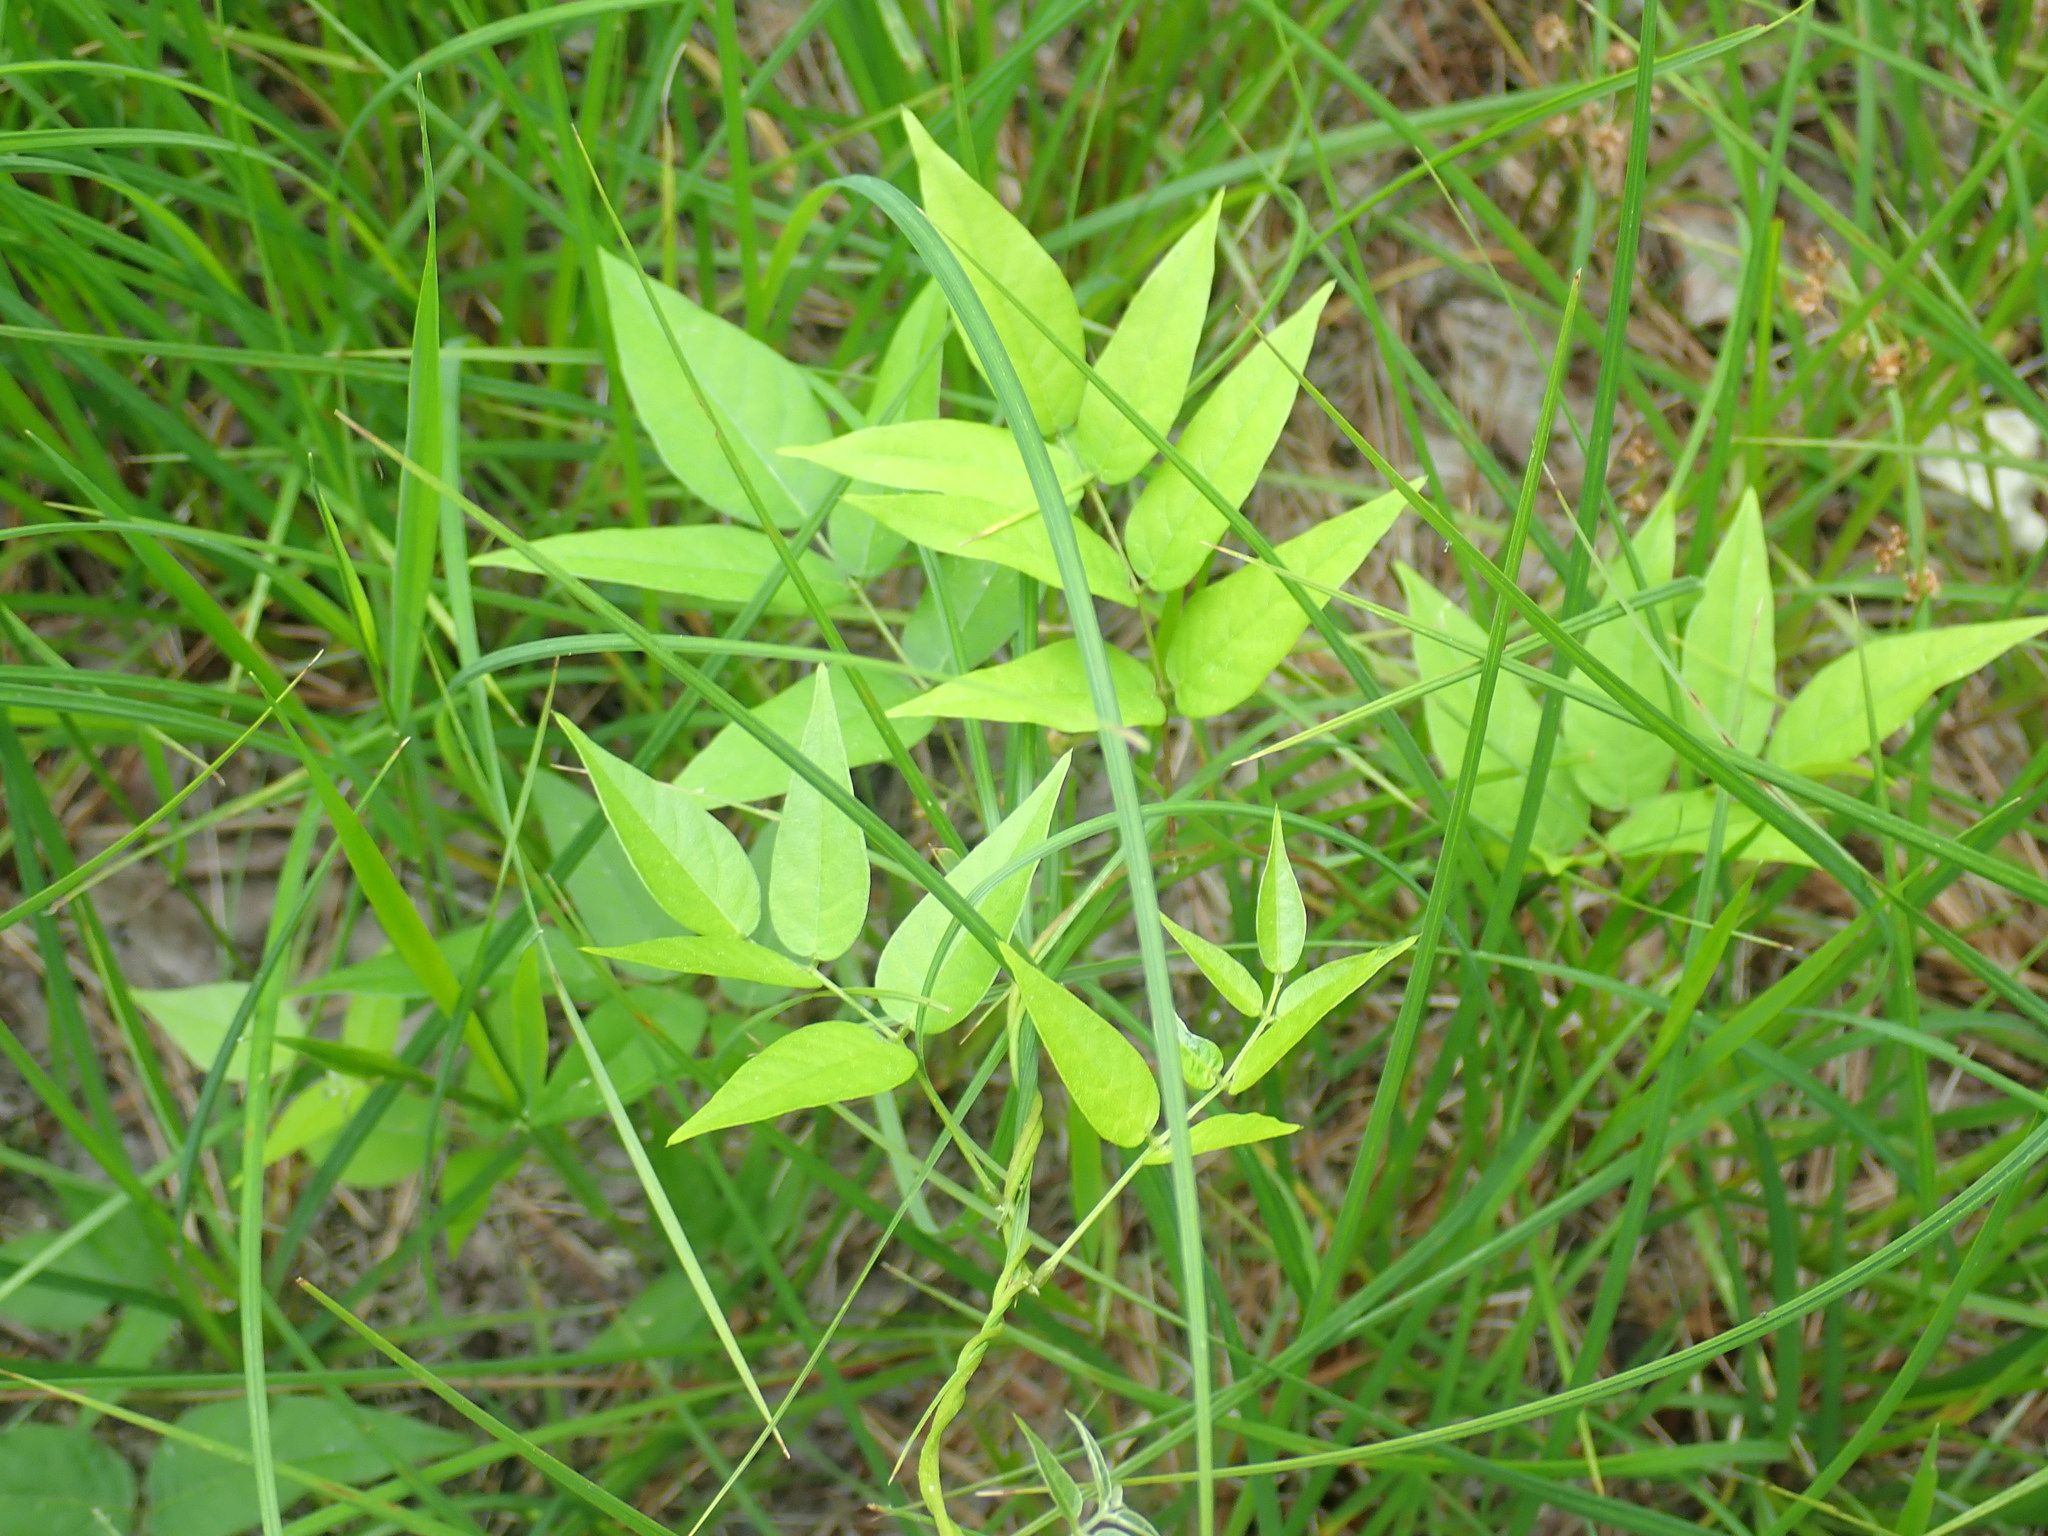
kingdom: Plantae
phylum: Tracheophyta
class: Magnoliopsida
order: Fabales
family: Fabaceae
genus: Apios
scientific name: Apios americana
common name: American potato-bean
